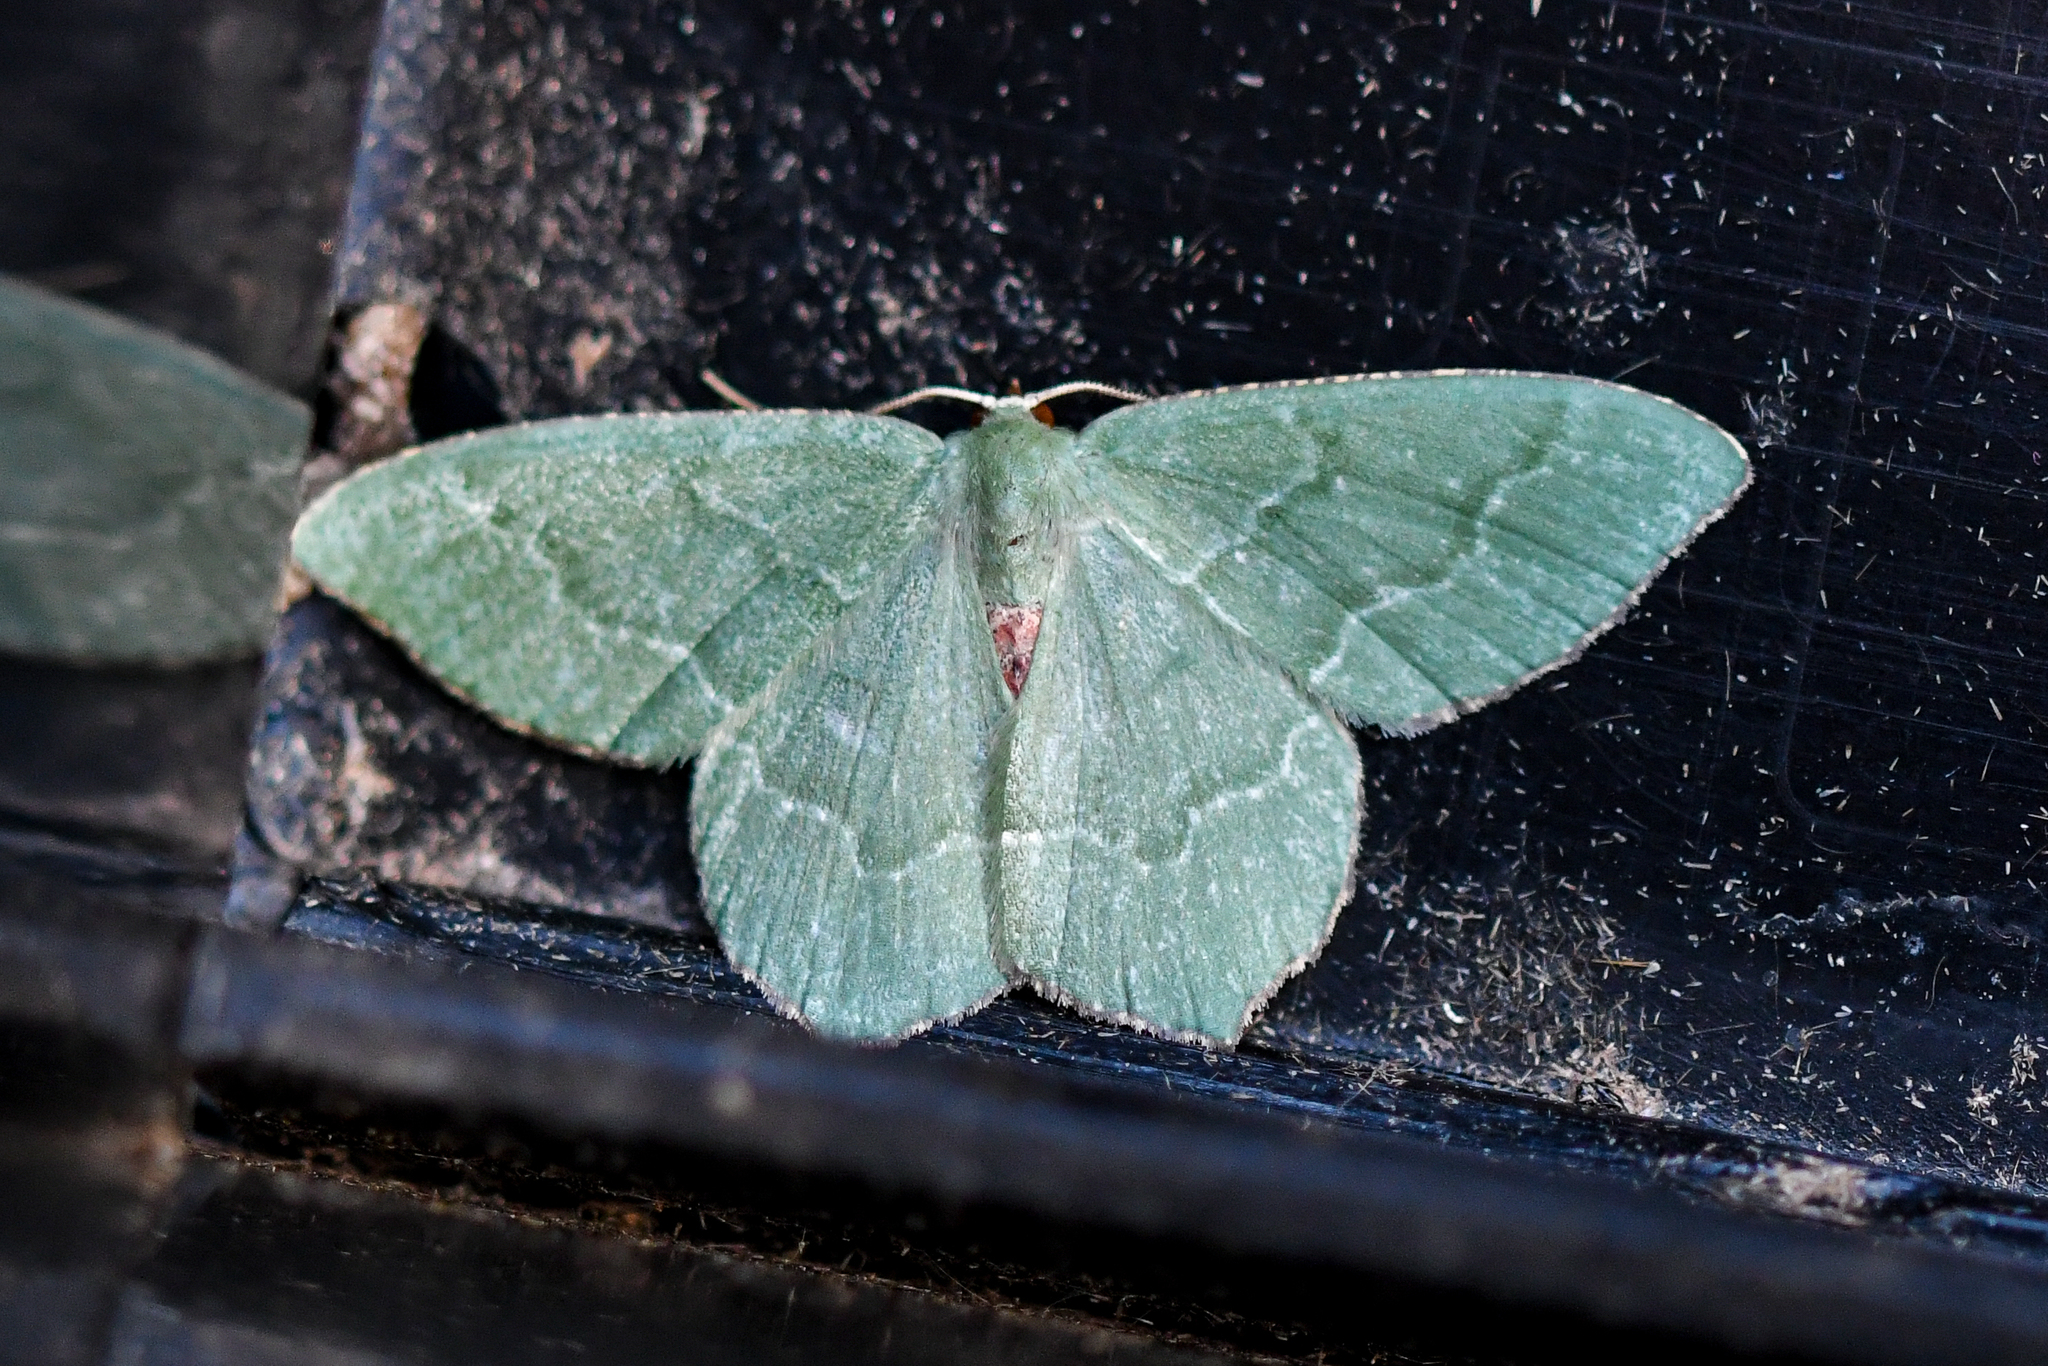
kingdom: Animalia
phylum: Arthropoda
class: Insecta
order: Lepidoptera
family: Geometridae
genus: Hemithea
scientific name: Hemithea aestivaria
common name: Common emerald
